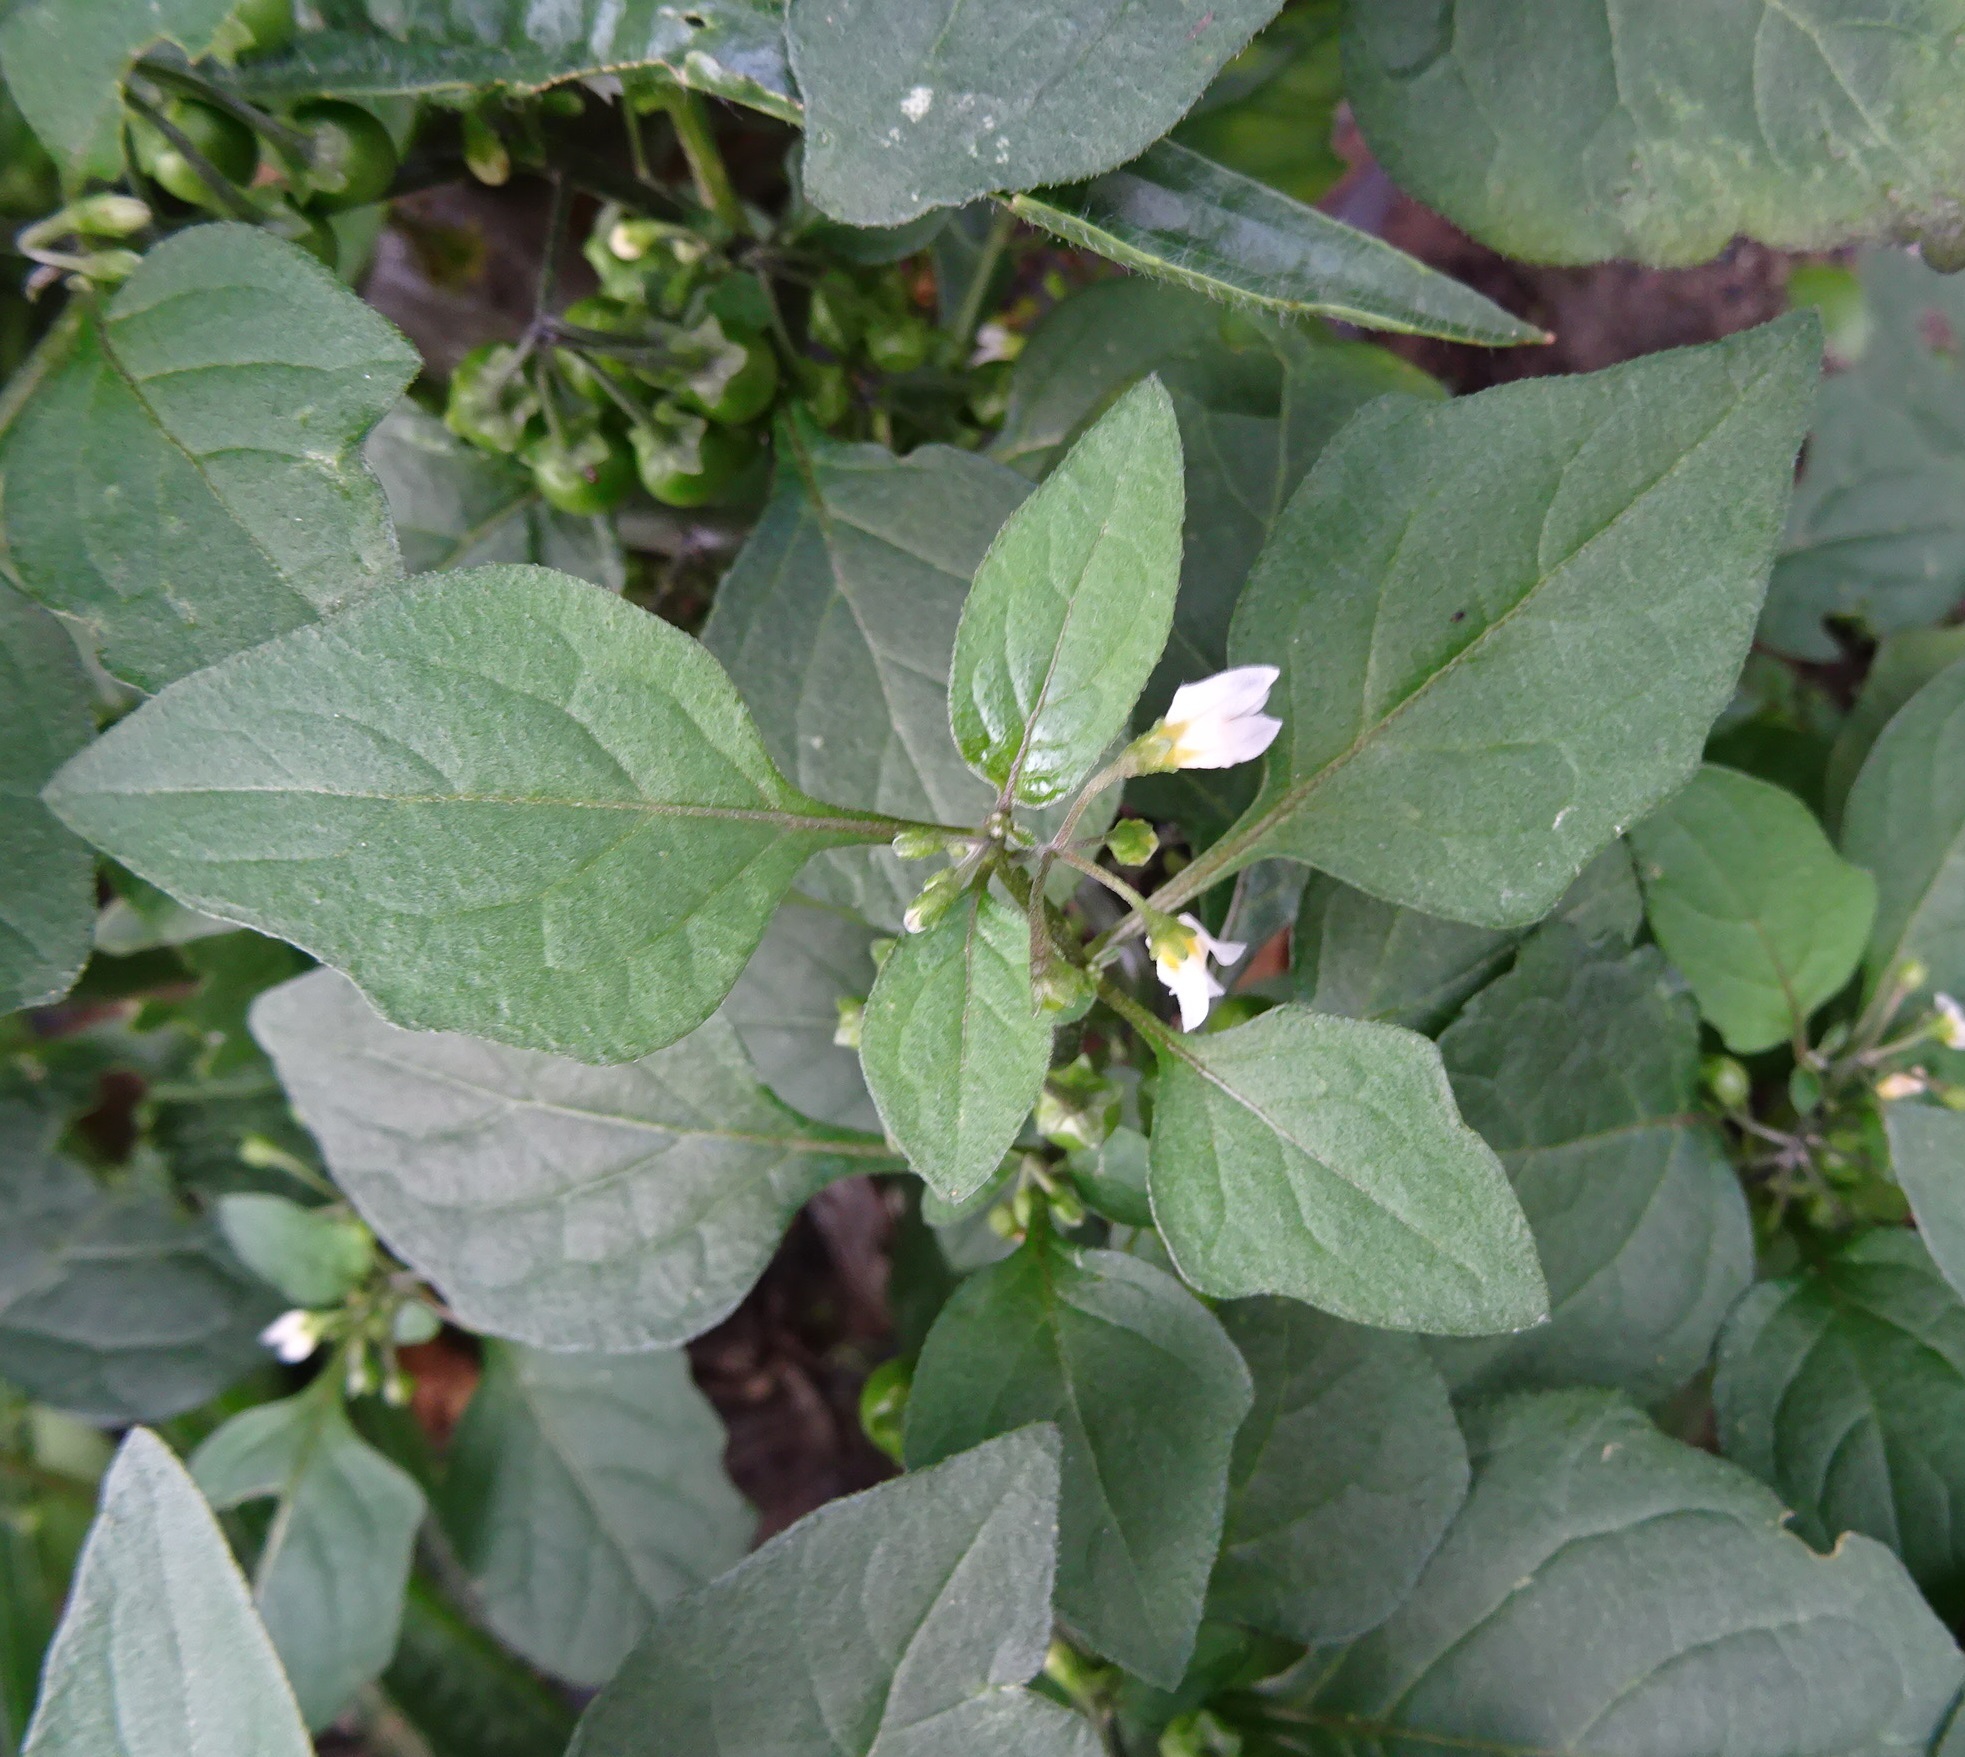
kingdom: Plantae
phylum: Tracheophyta
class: Magnoliopsida
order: Solanales
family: Solanaceae
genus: Solanum
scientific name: Solanum nigrum
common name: Black nightshade
